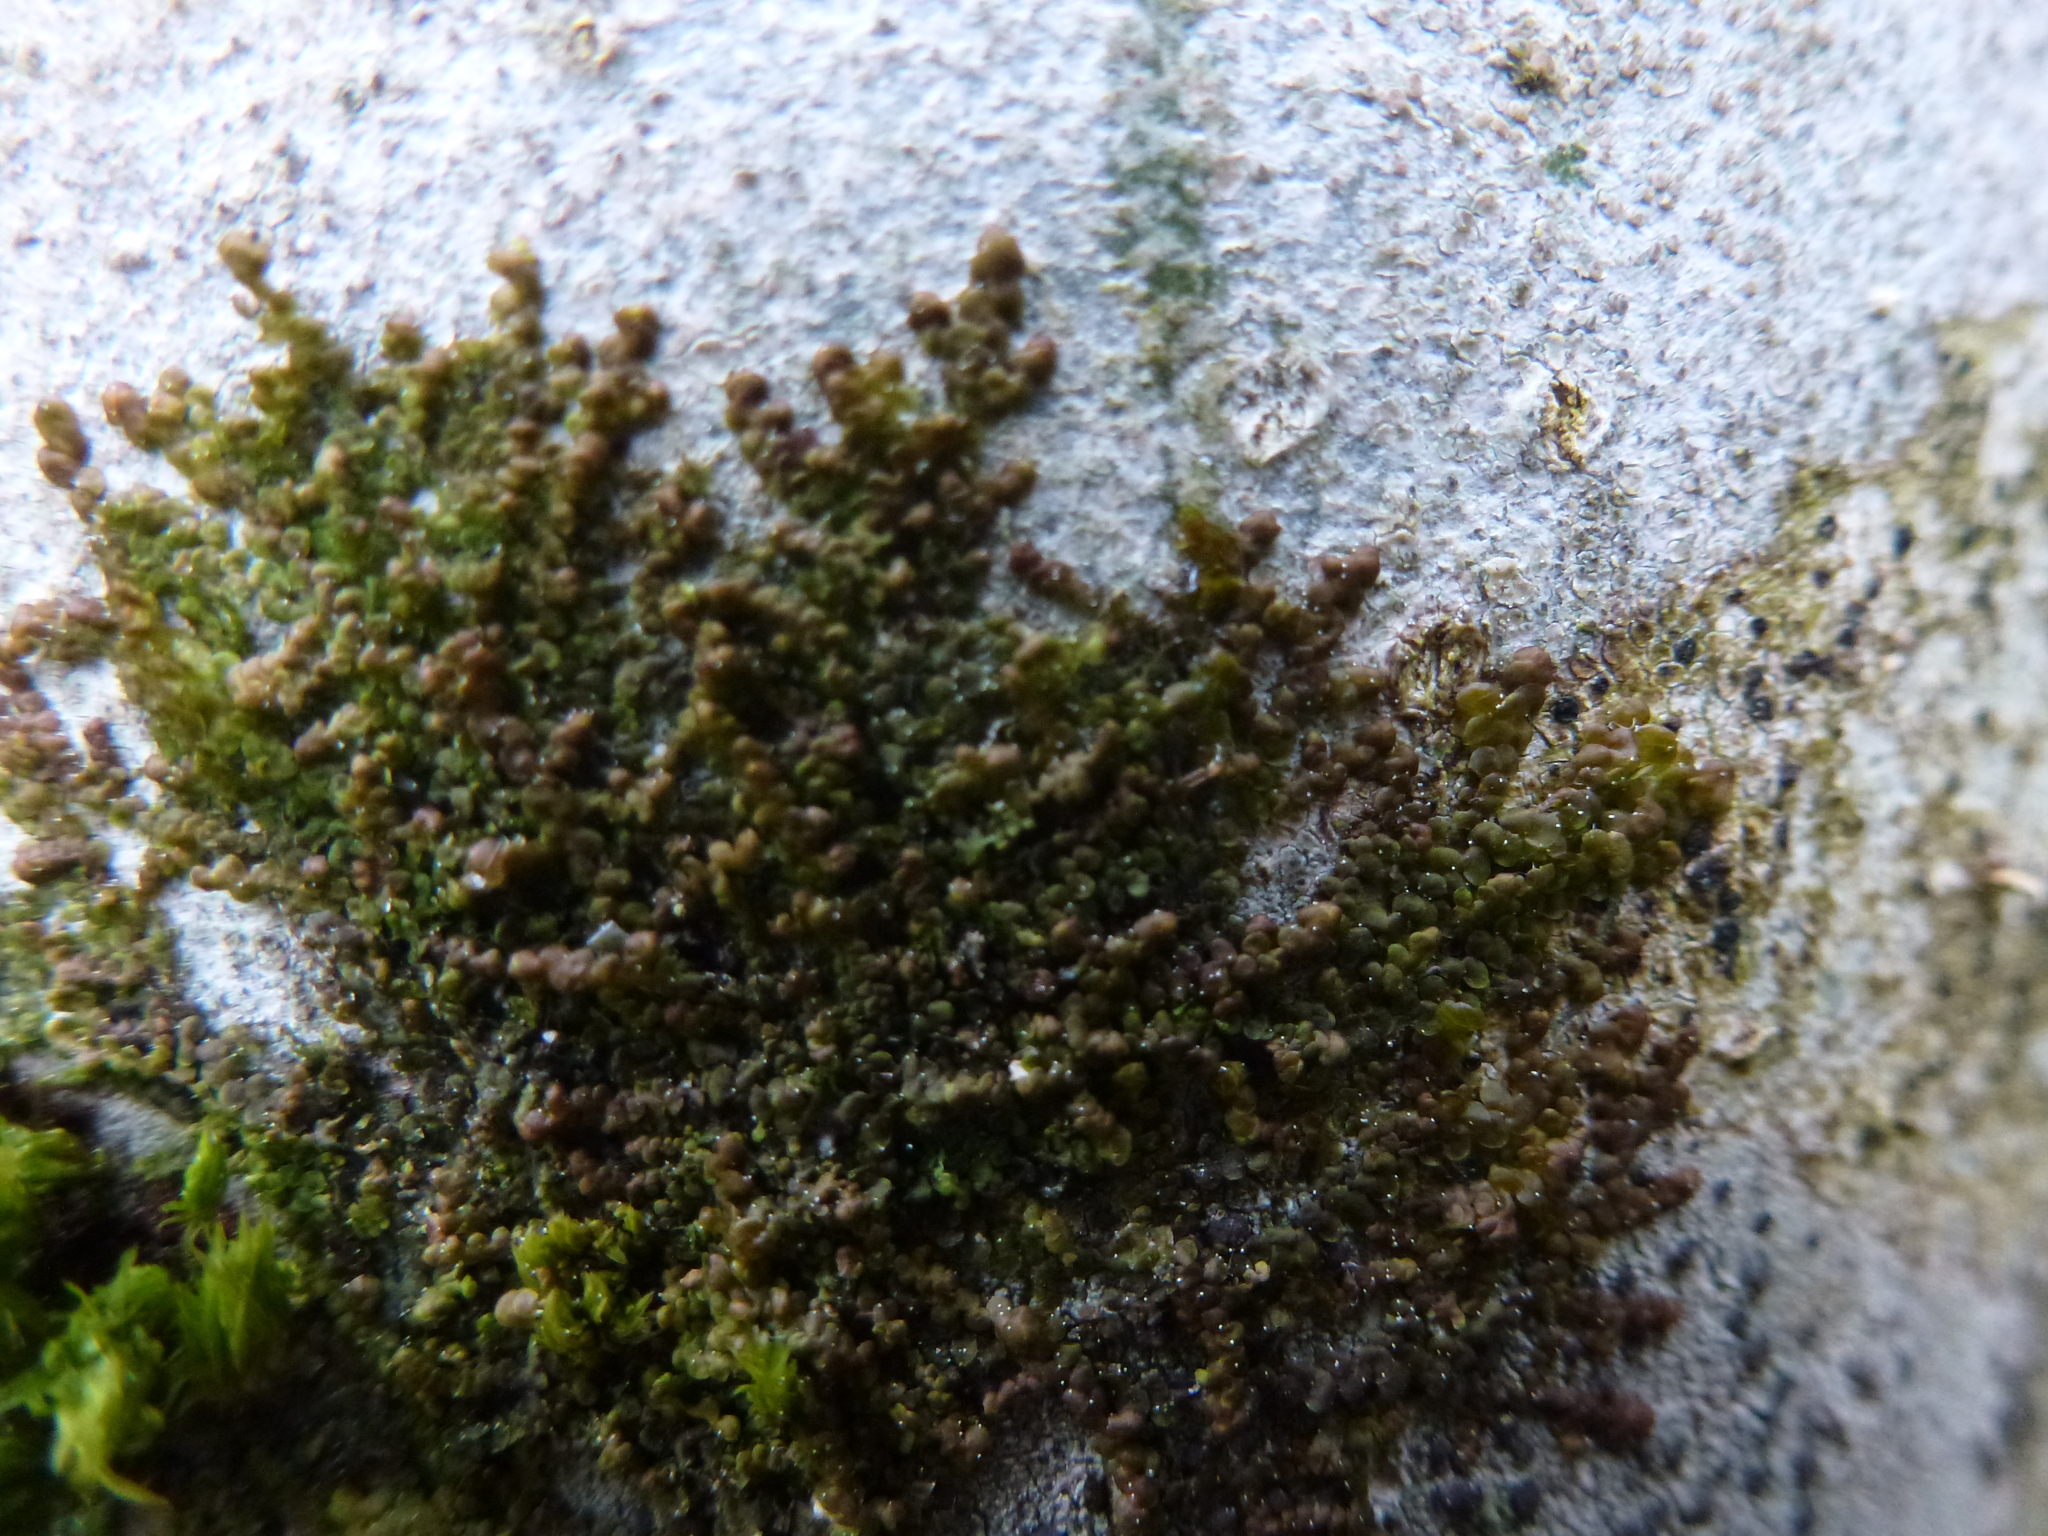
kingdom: Plantae
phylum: Marchantiophyta
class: Jungermanniopsida
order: Porellales
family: Frullaniaceae
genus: Frullania
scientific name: Frullania dilatata
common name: Dilated scalewort
